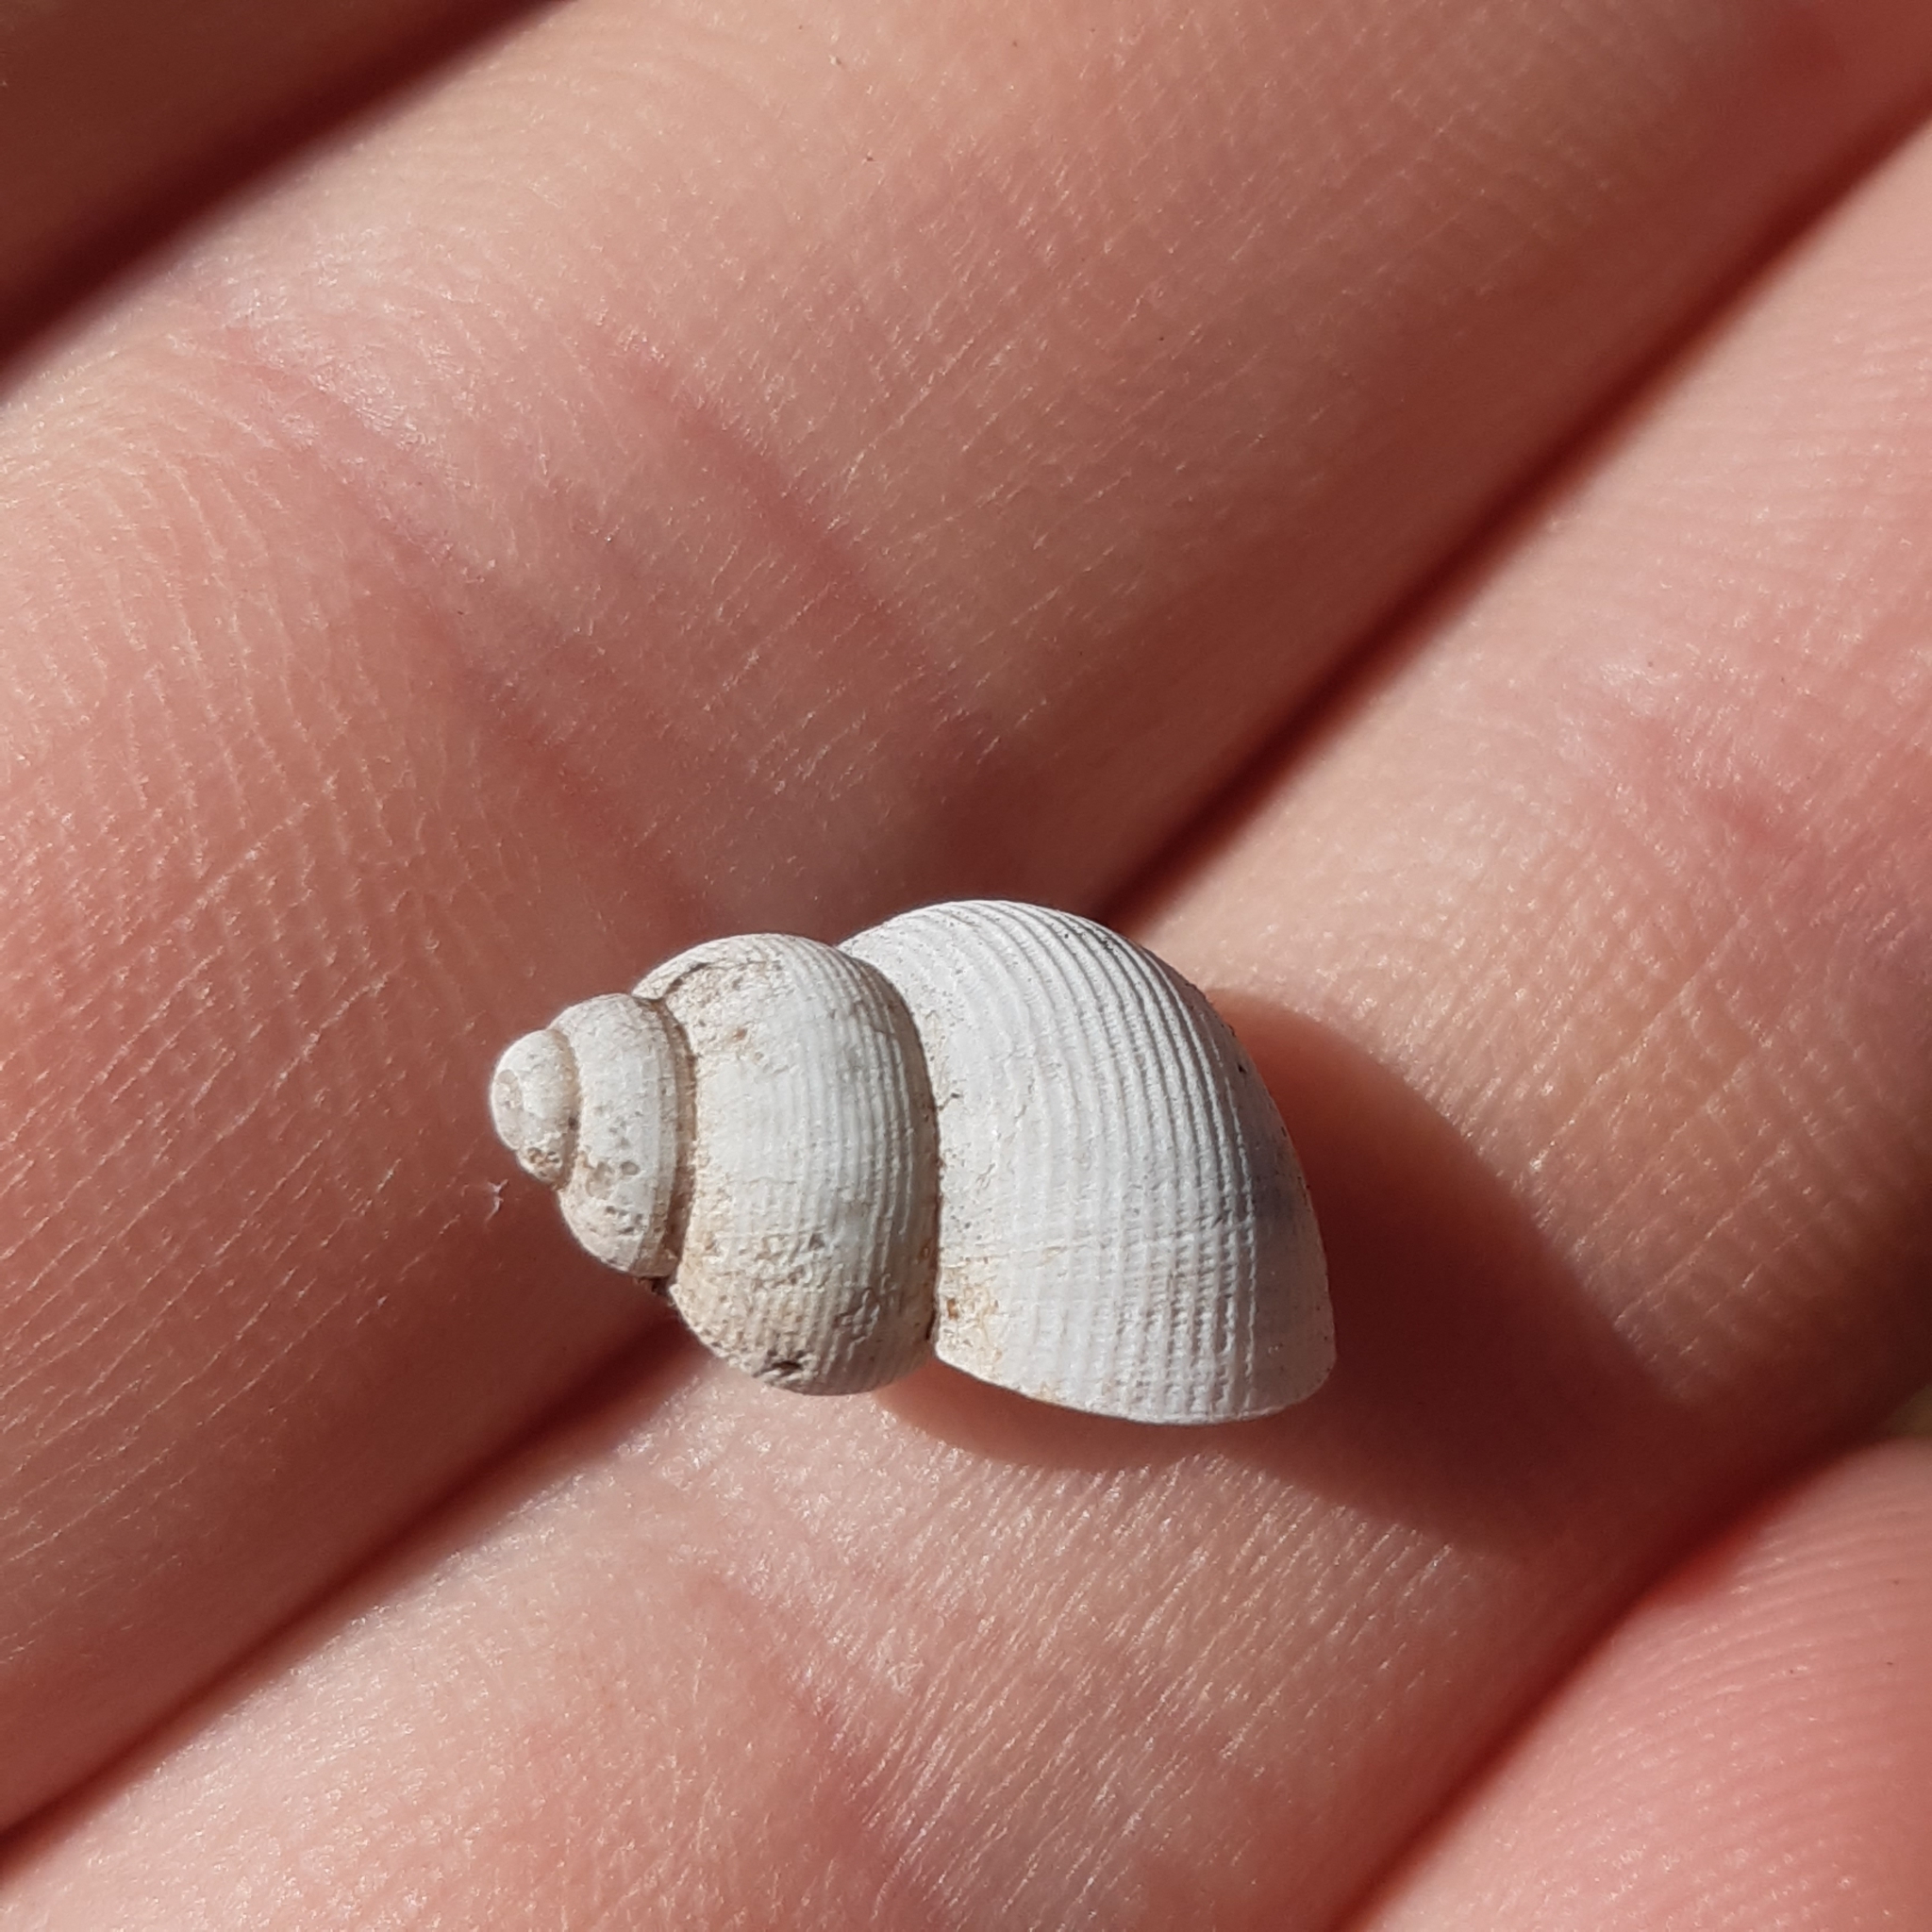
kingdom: Animalia
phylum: Mollusca
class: Gastropoda
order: Littorinimorpha
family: Pomatiidae
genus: Pomatias
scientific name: Pomatias elegans
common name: Red-mouthed snail
